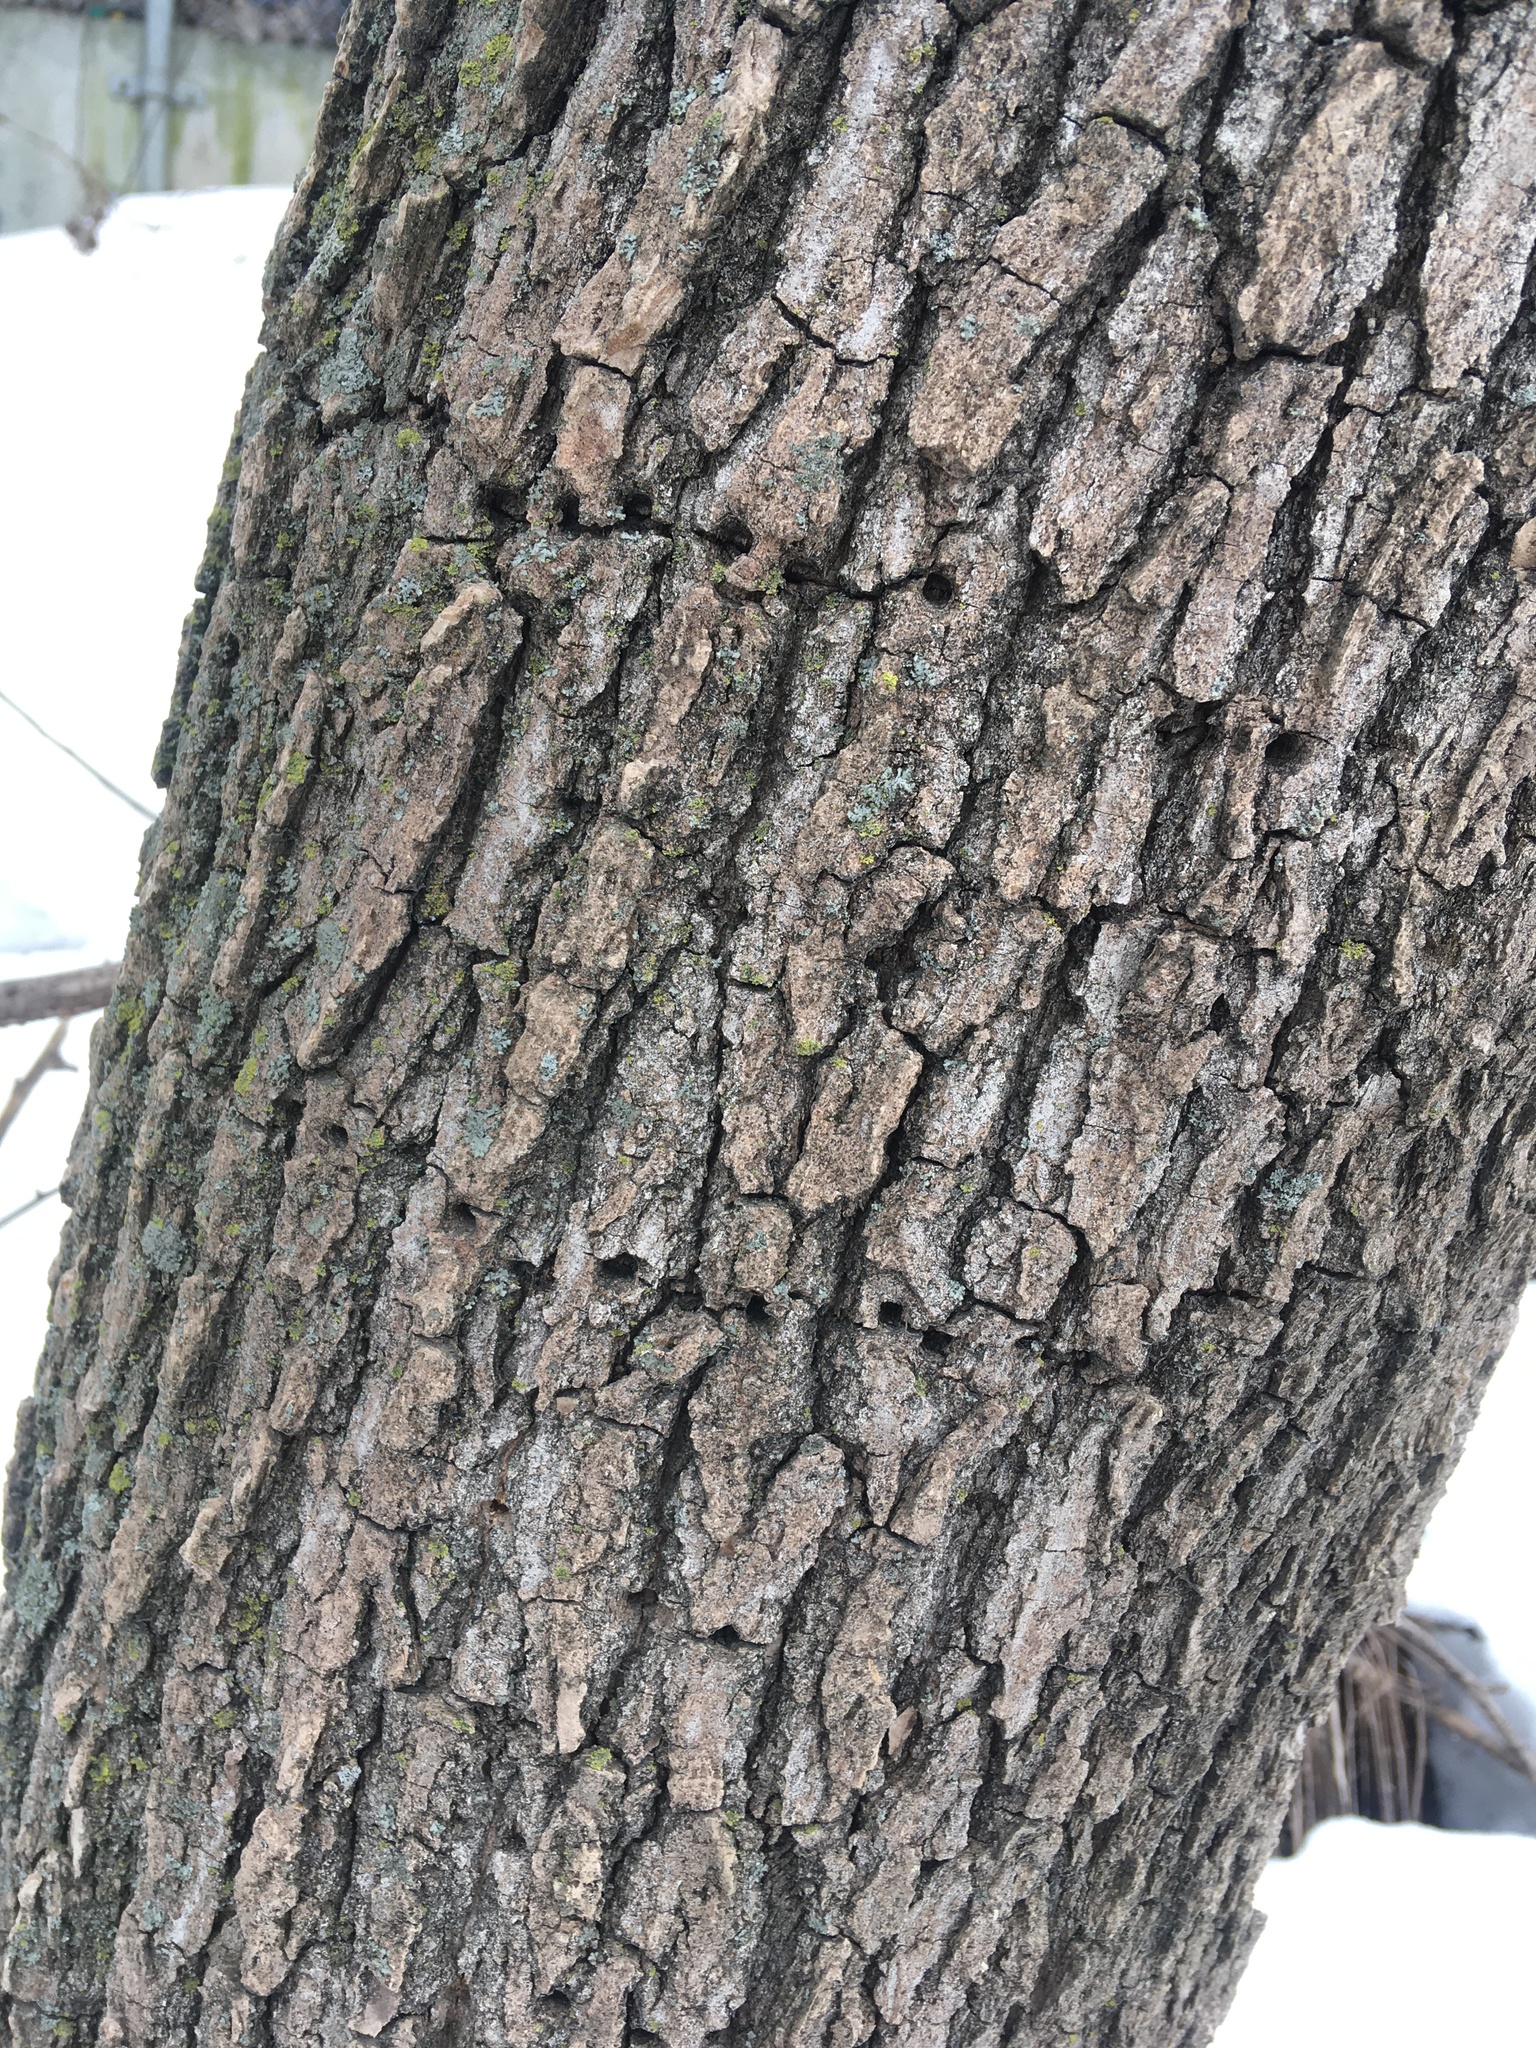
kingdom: Plantae
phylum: Tracheophyta
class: Magnoliopsida
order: Malpighiales
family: Salicaceae
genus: Populus
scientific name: Populus deltoides
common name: Eastern cottonwood
